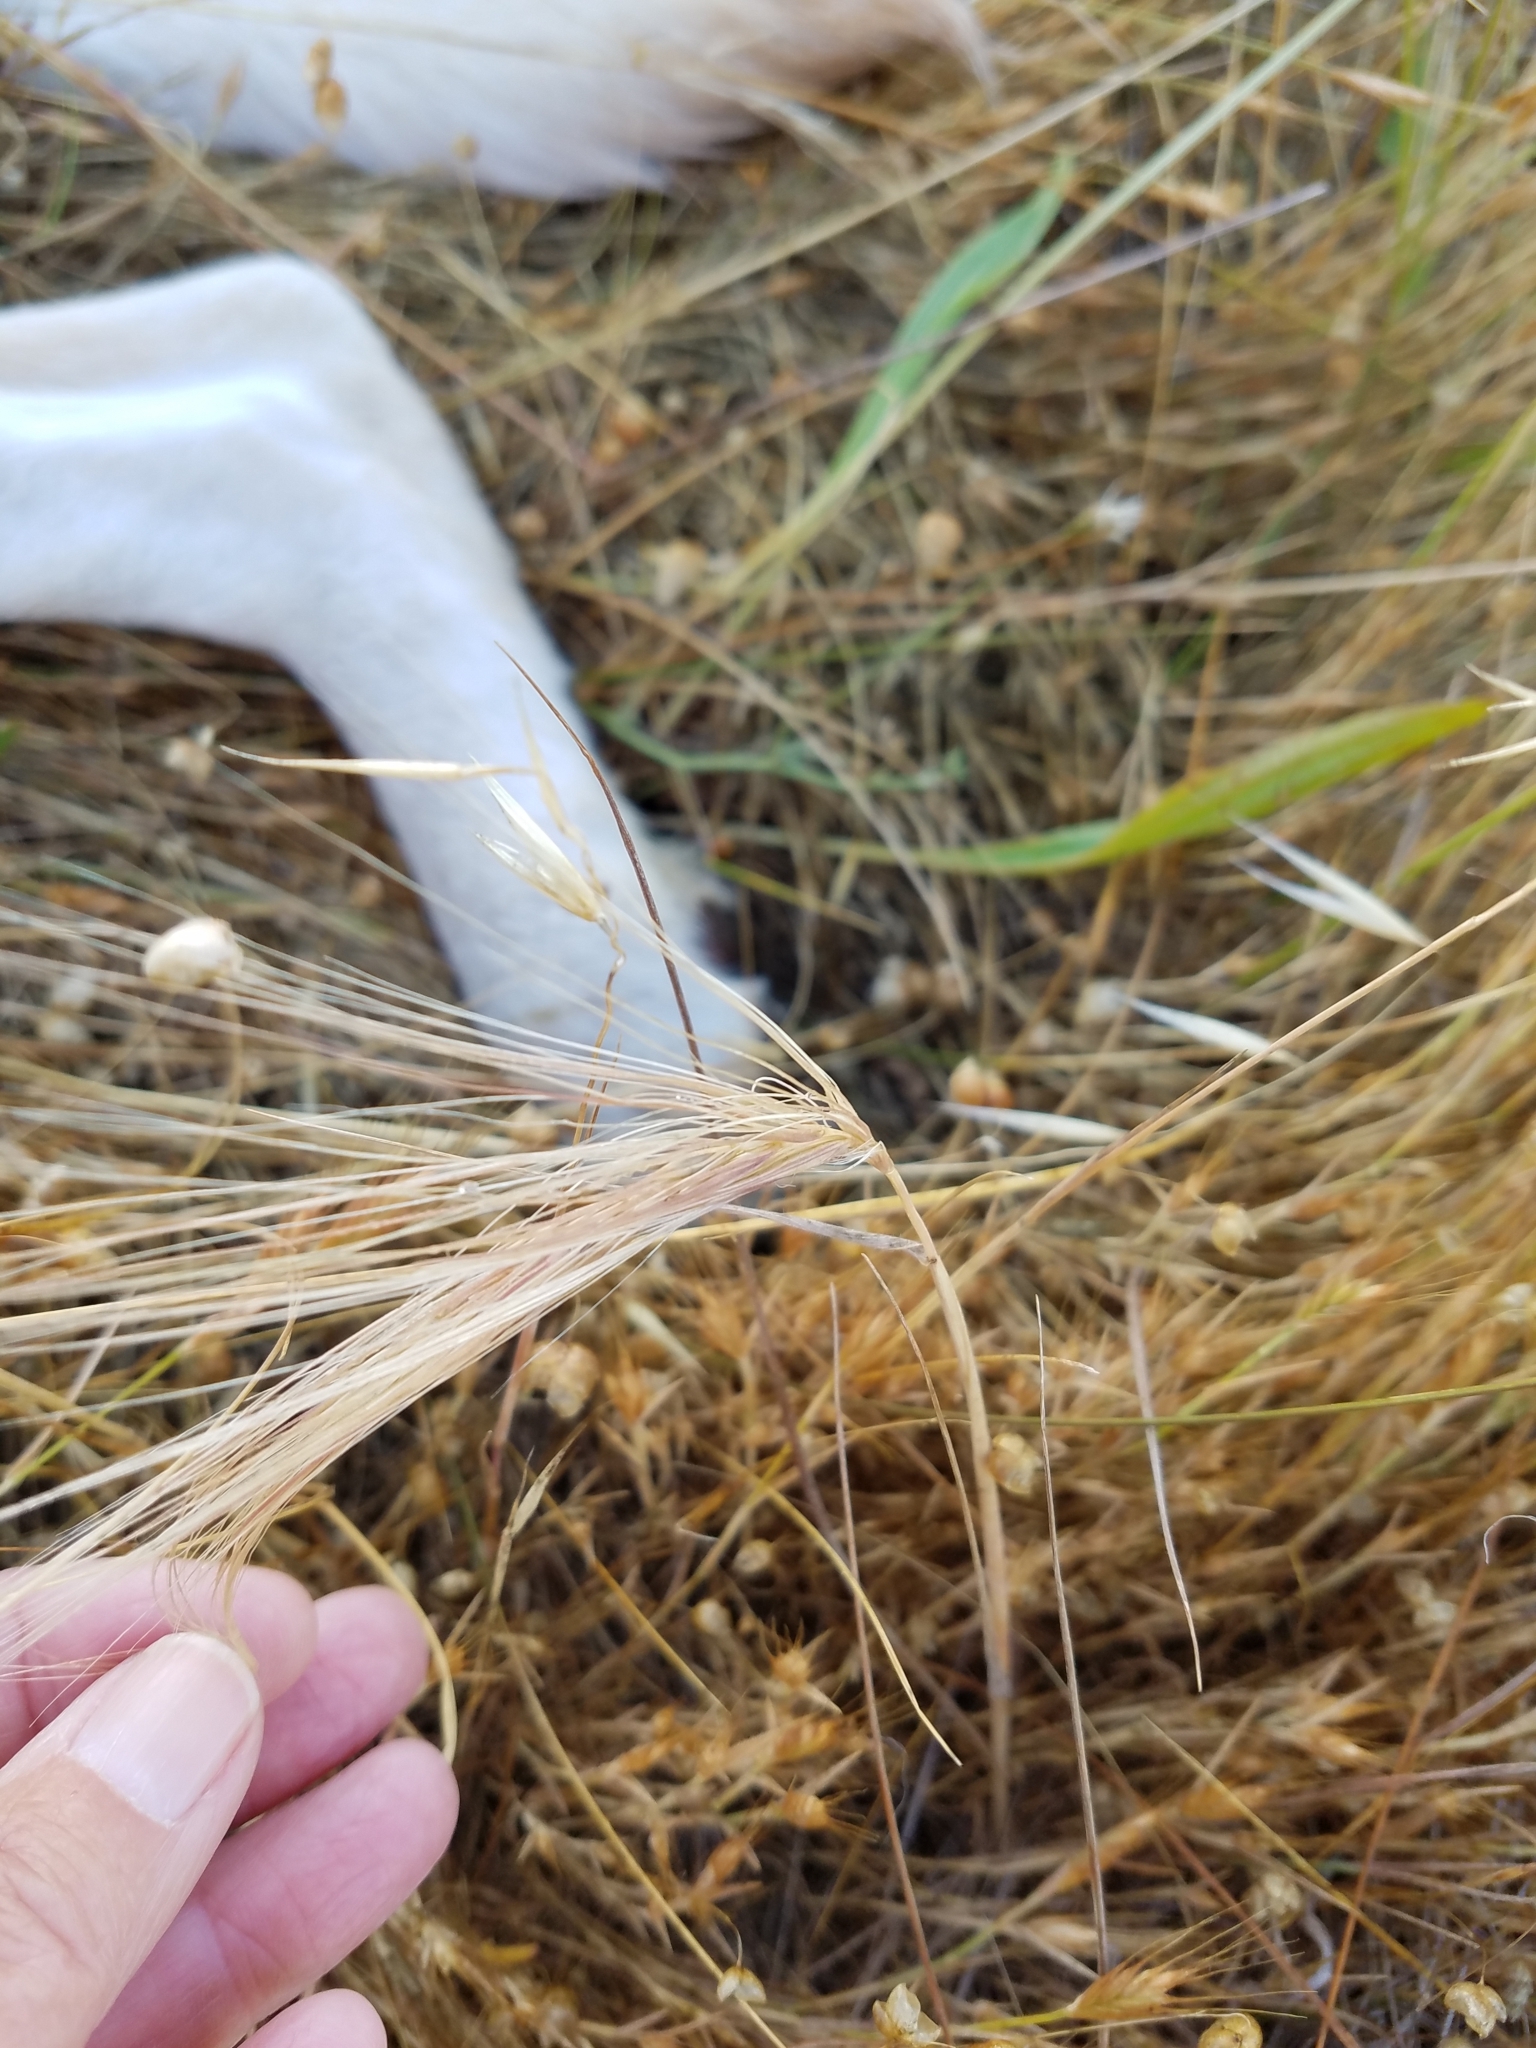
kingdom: Plantae
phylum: Tracheophyta
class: Liliopsida
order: Poales
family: Poaceae
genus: Elymus
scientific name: Elymus multisetus
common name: Big squirreltail
